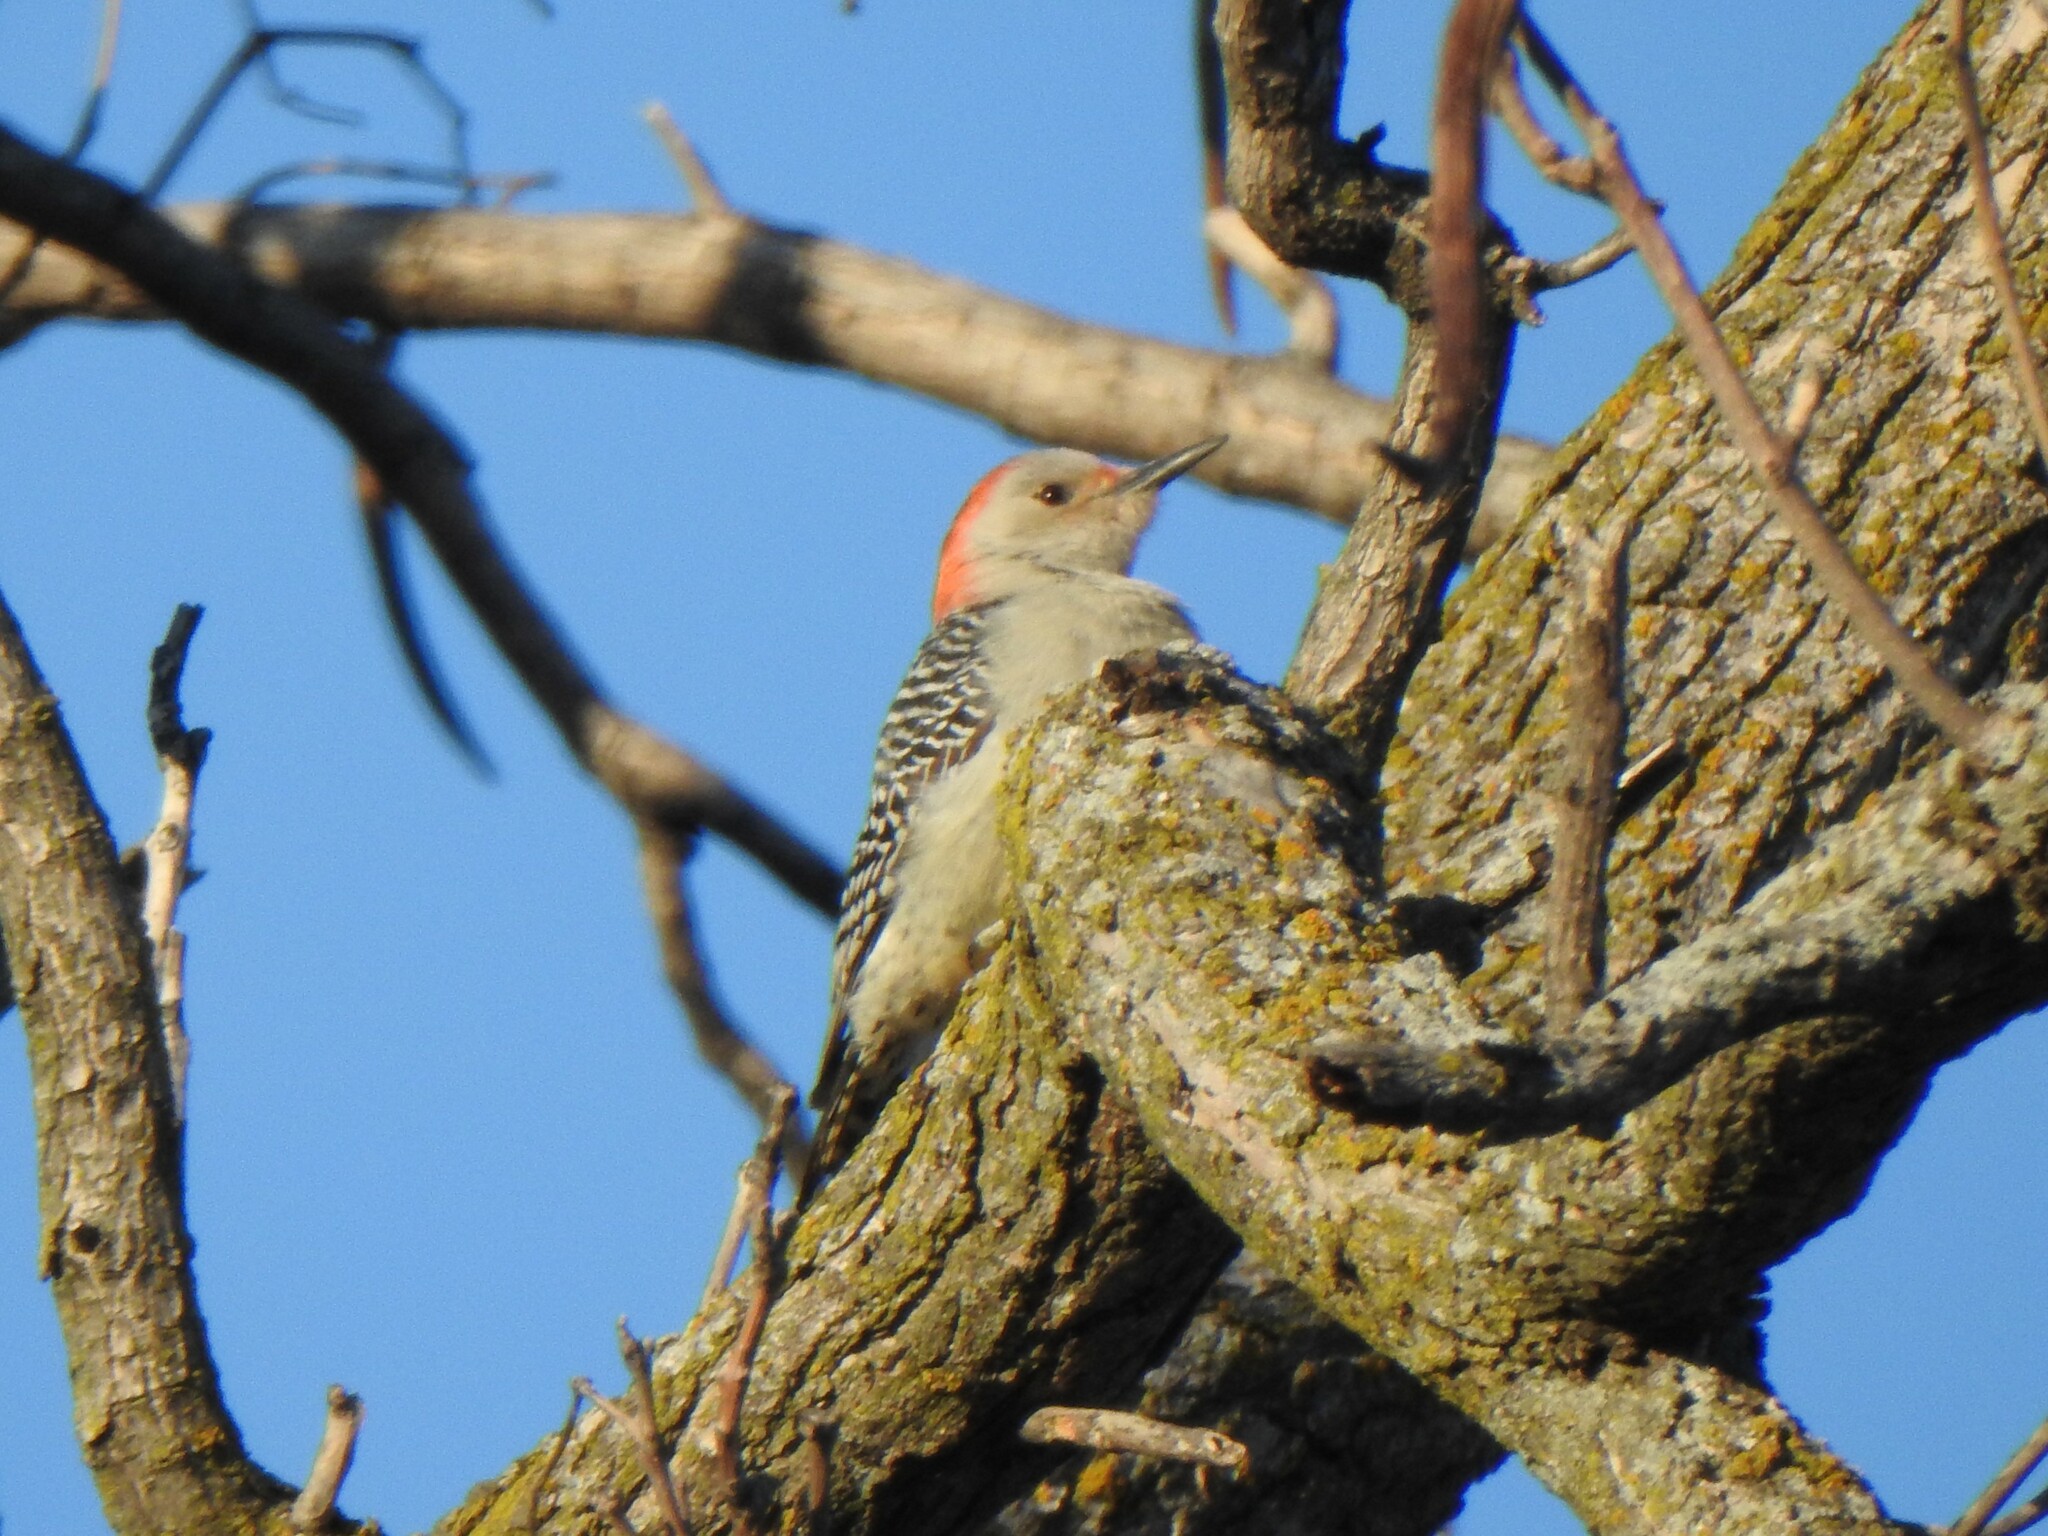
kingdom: Animalia
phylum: Chordata
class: Aves
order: Piciformes
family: Picidae
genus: Melanerpes
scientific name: Melanerpes carolinus
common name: Red-bellied woodpecker
